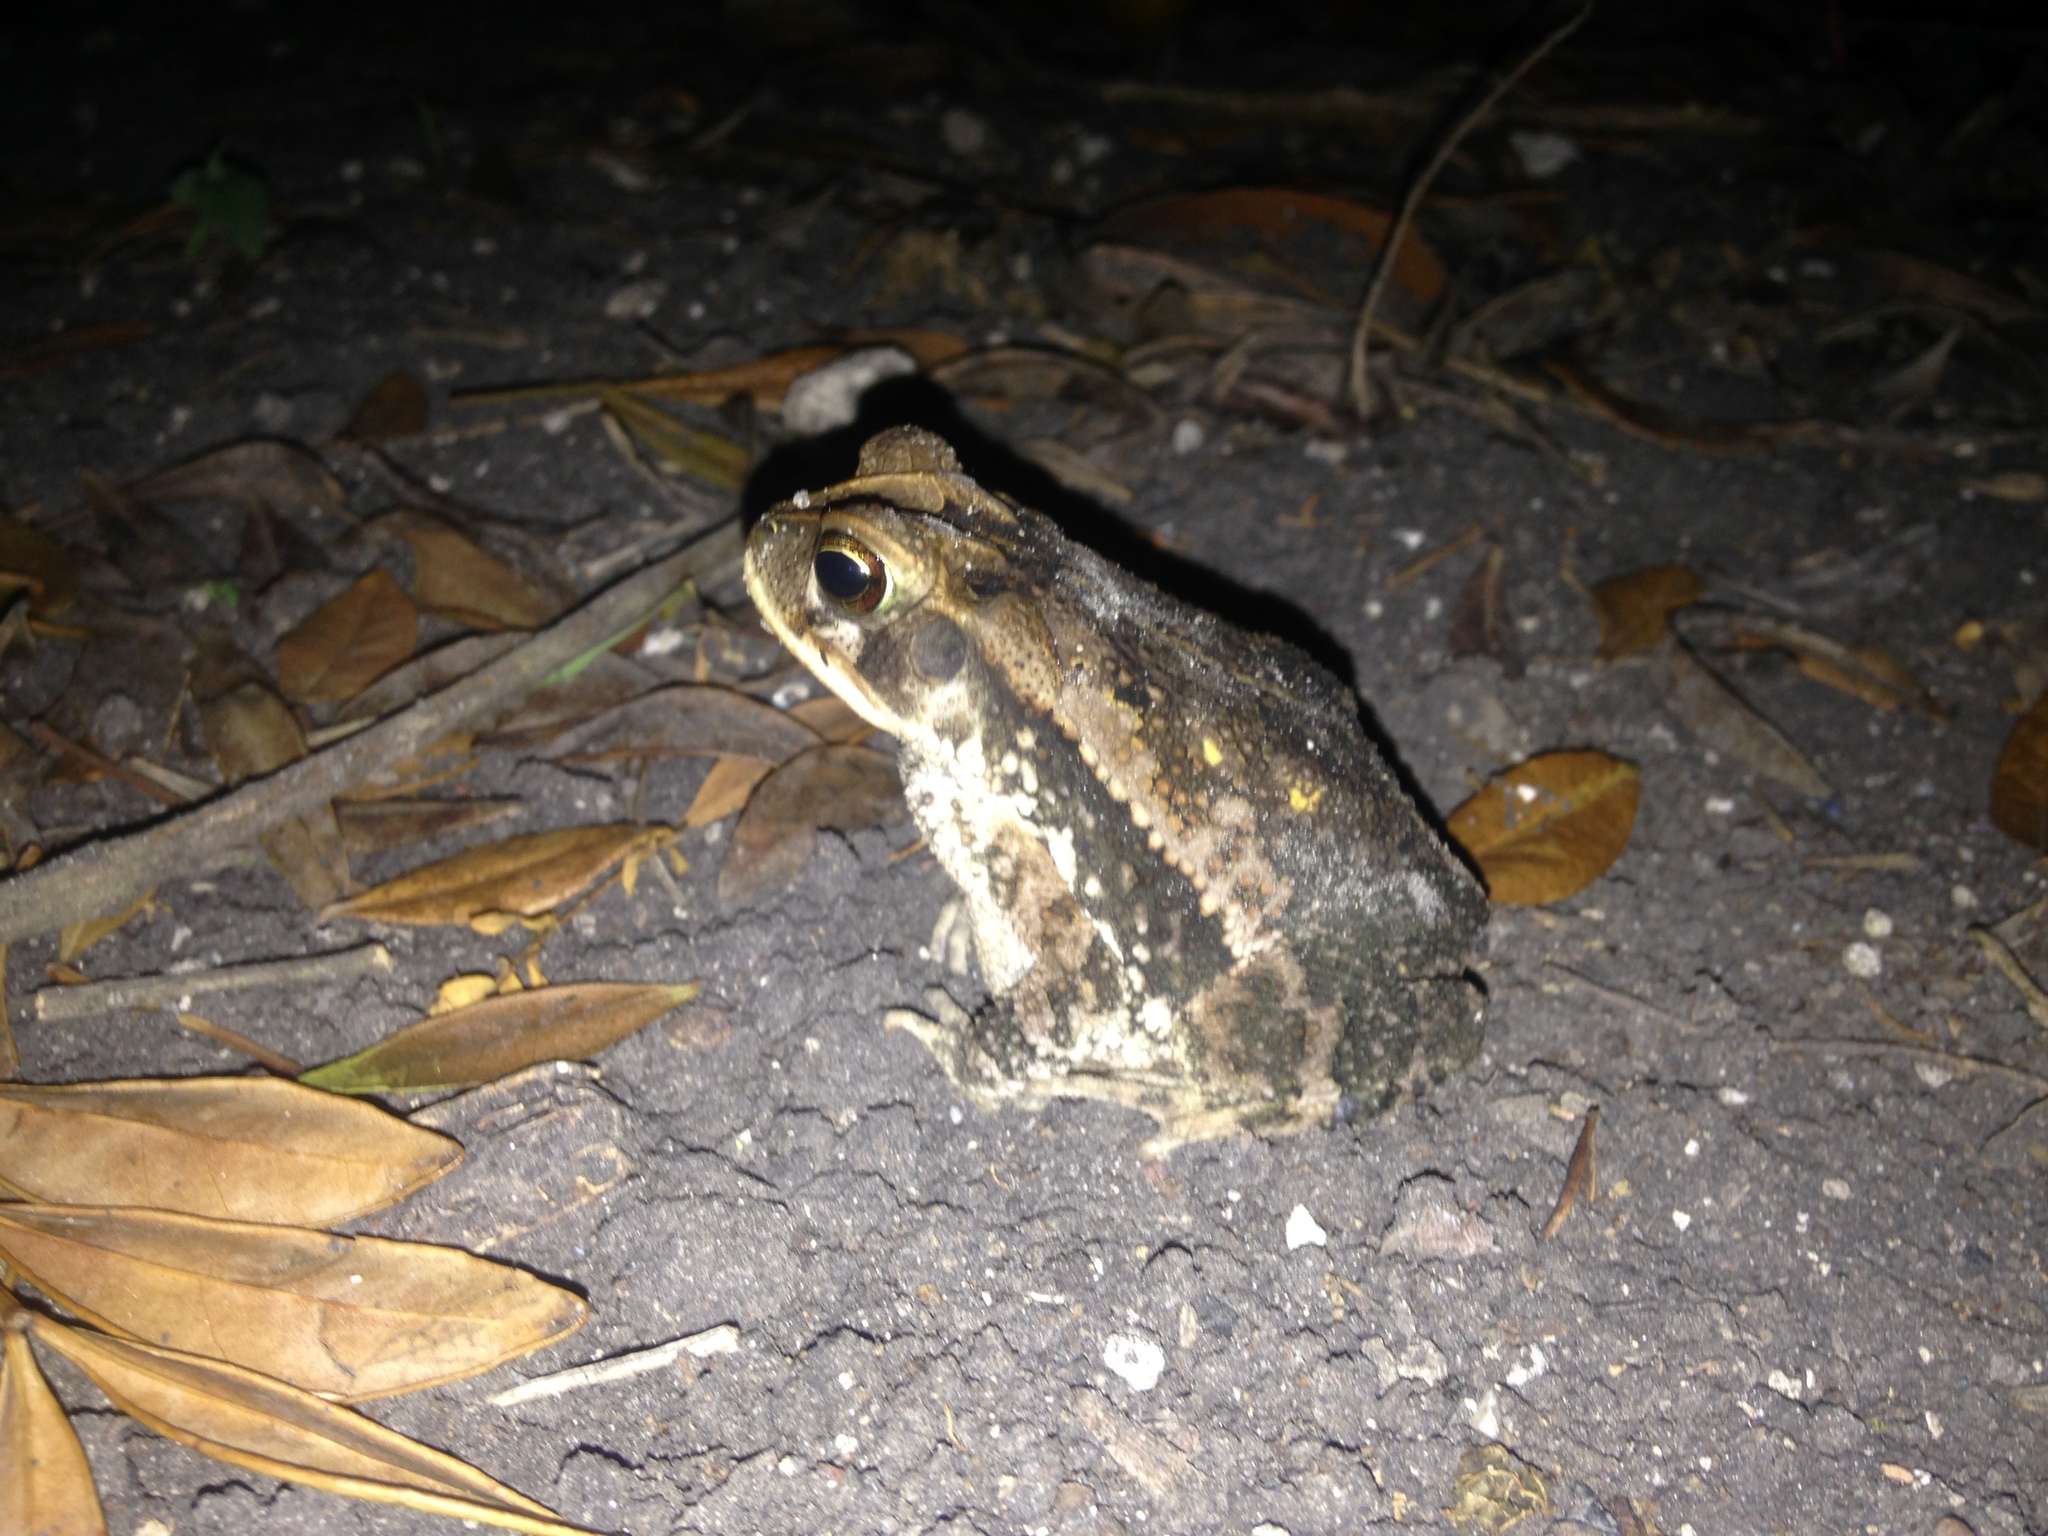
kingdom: Animalia
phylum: Chordata
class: Amphibia
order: Anura
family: Bufonidae
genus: Incilius
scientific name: Incilius valliceps
